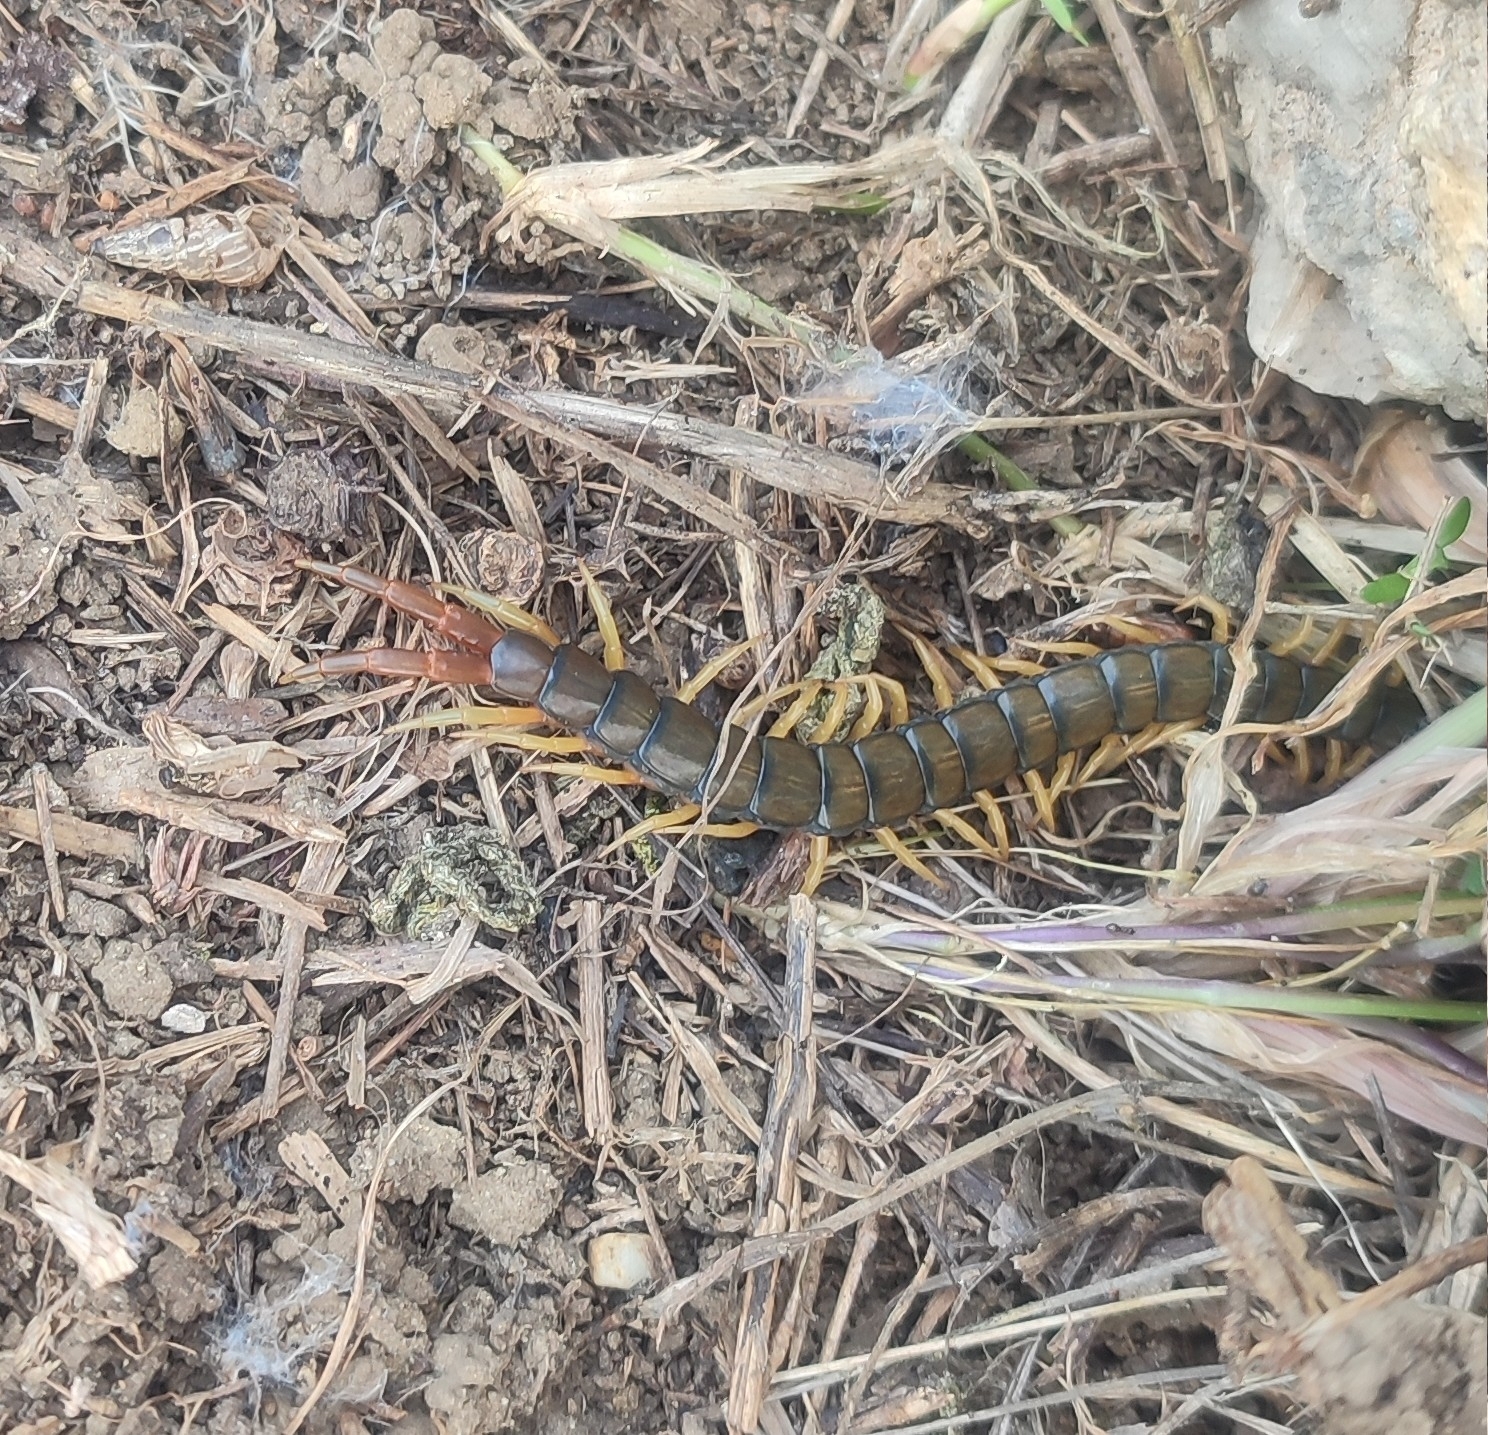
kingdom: Animalia
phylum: Arthropoda
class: Chilopoda
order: Scolopendromorpha
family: Scolopendridae
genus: Scolopendra
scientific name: Scolopendra cingulata
